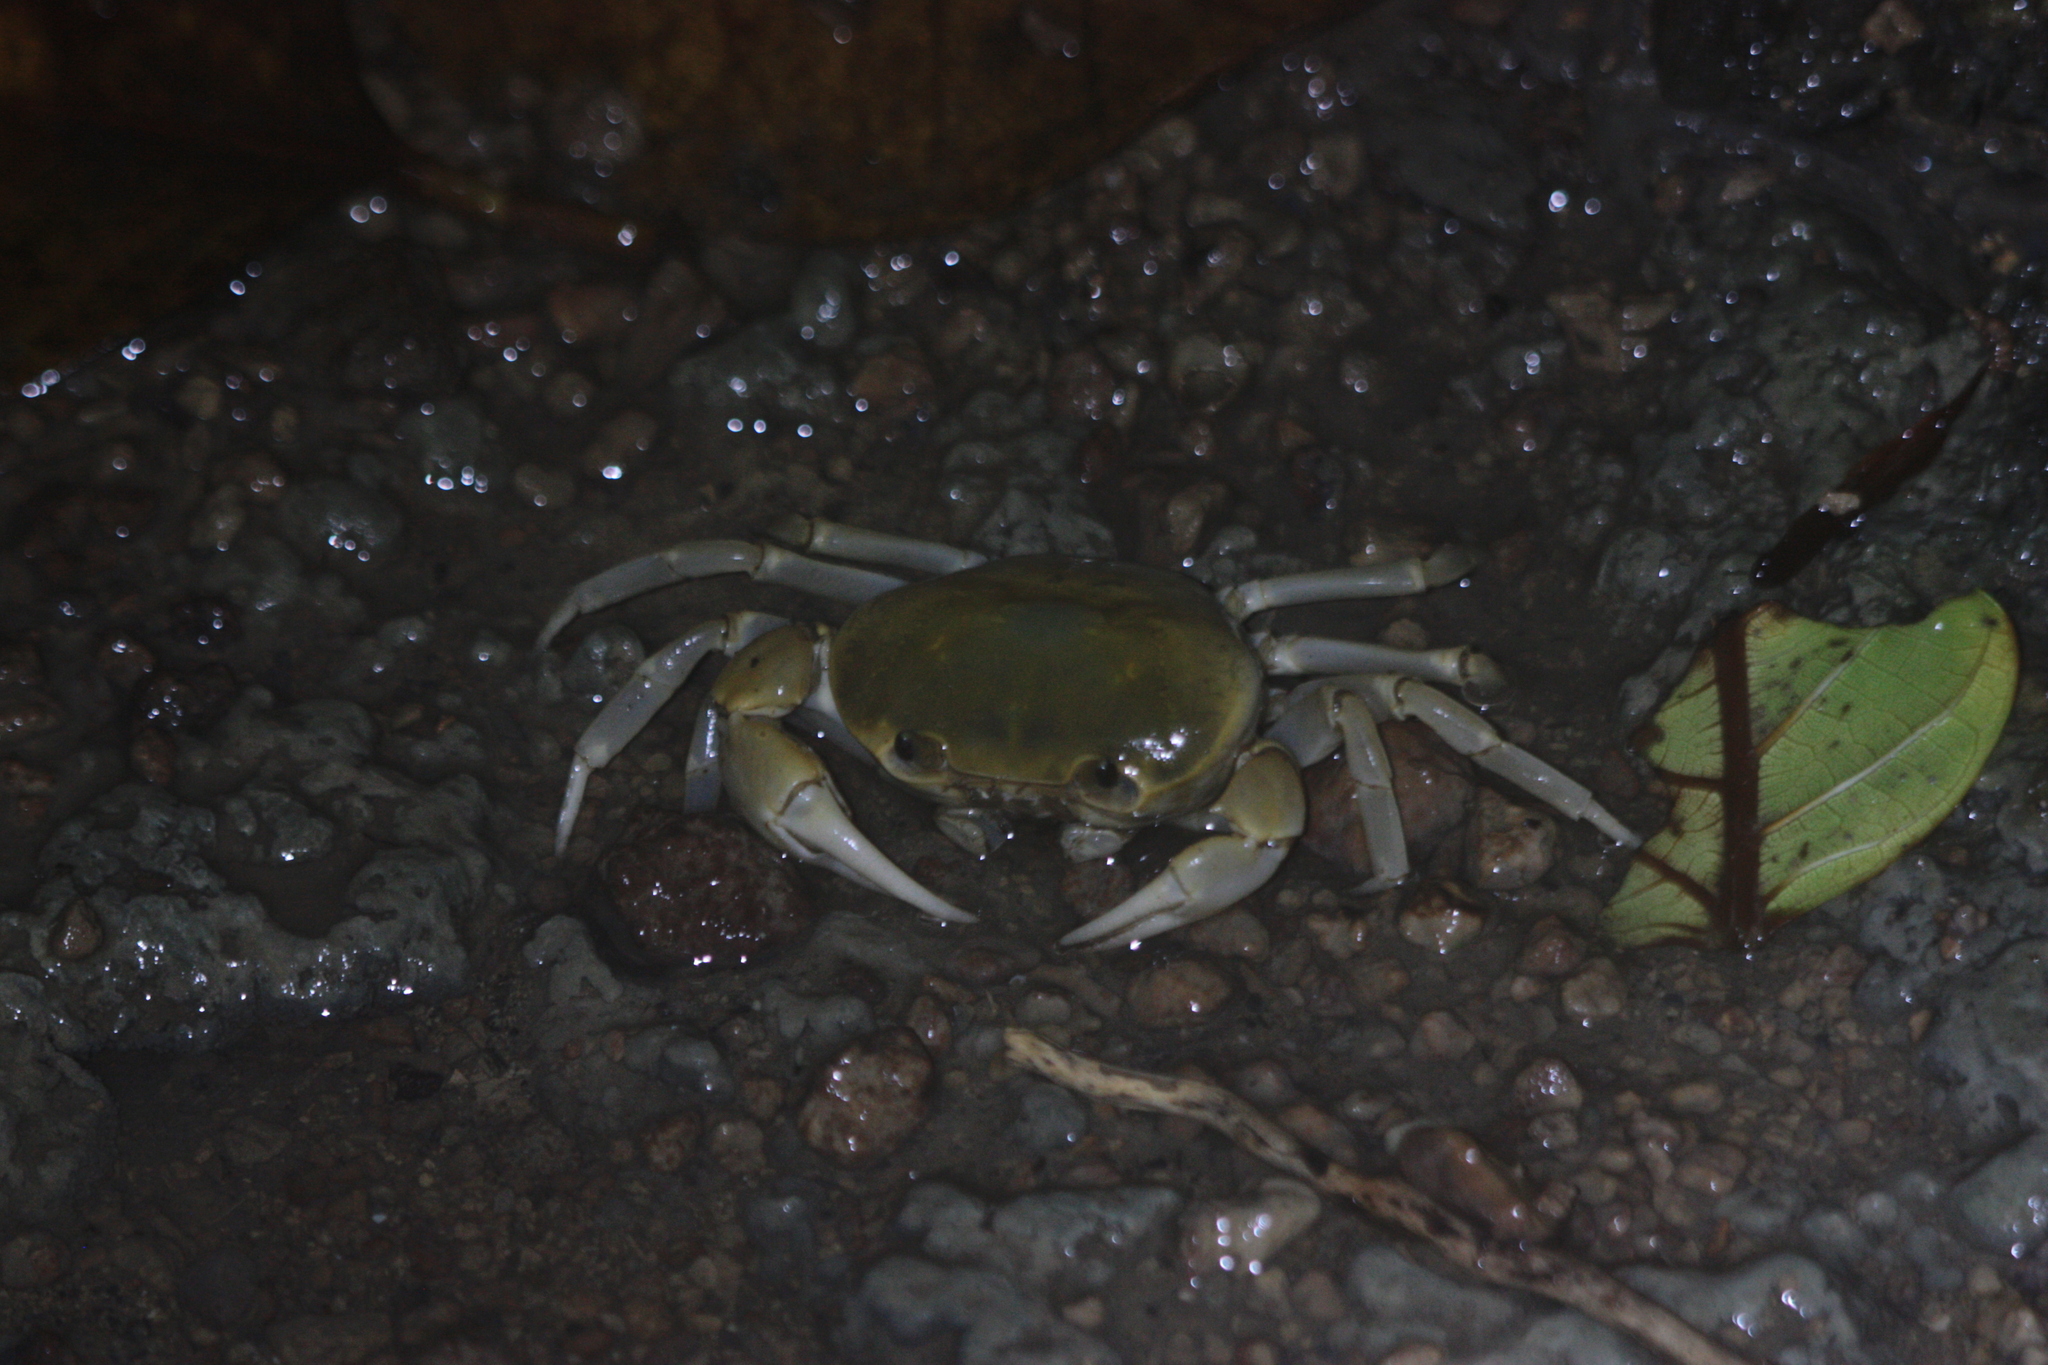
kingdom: Animalia
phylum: Arthropoda
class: Malacostraca
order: Decapoda
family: Potamidae
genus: Geothelphusa
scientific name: Geothelphusa makatao
